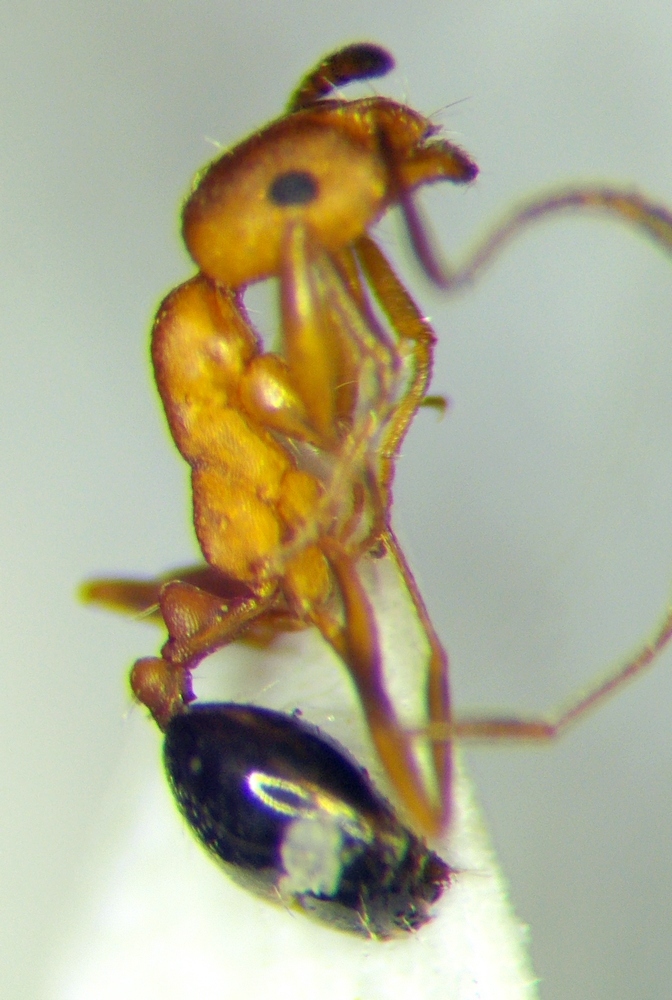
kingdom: Animalia
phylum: Arthropoda
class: Insecta
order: Hymenoptera
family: Formicidae
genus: Monomorium
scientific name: Monomorium bicolor
